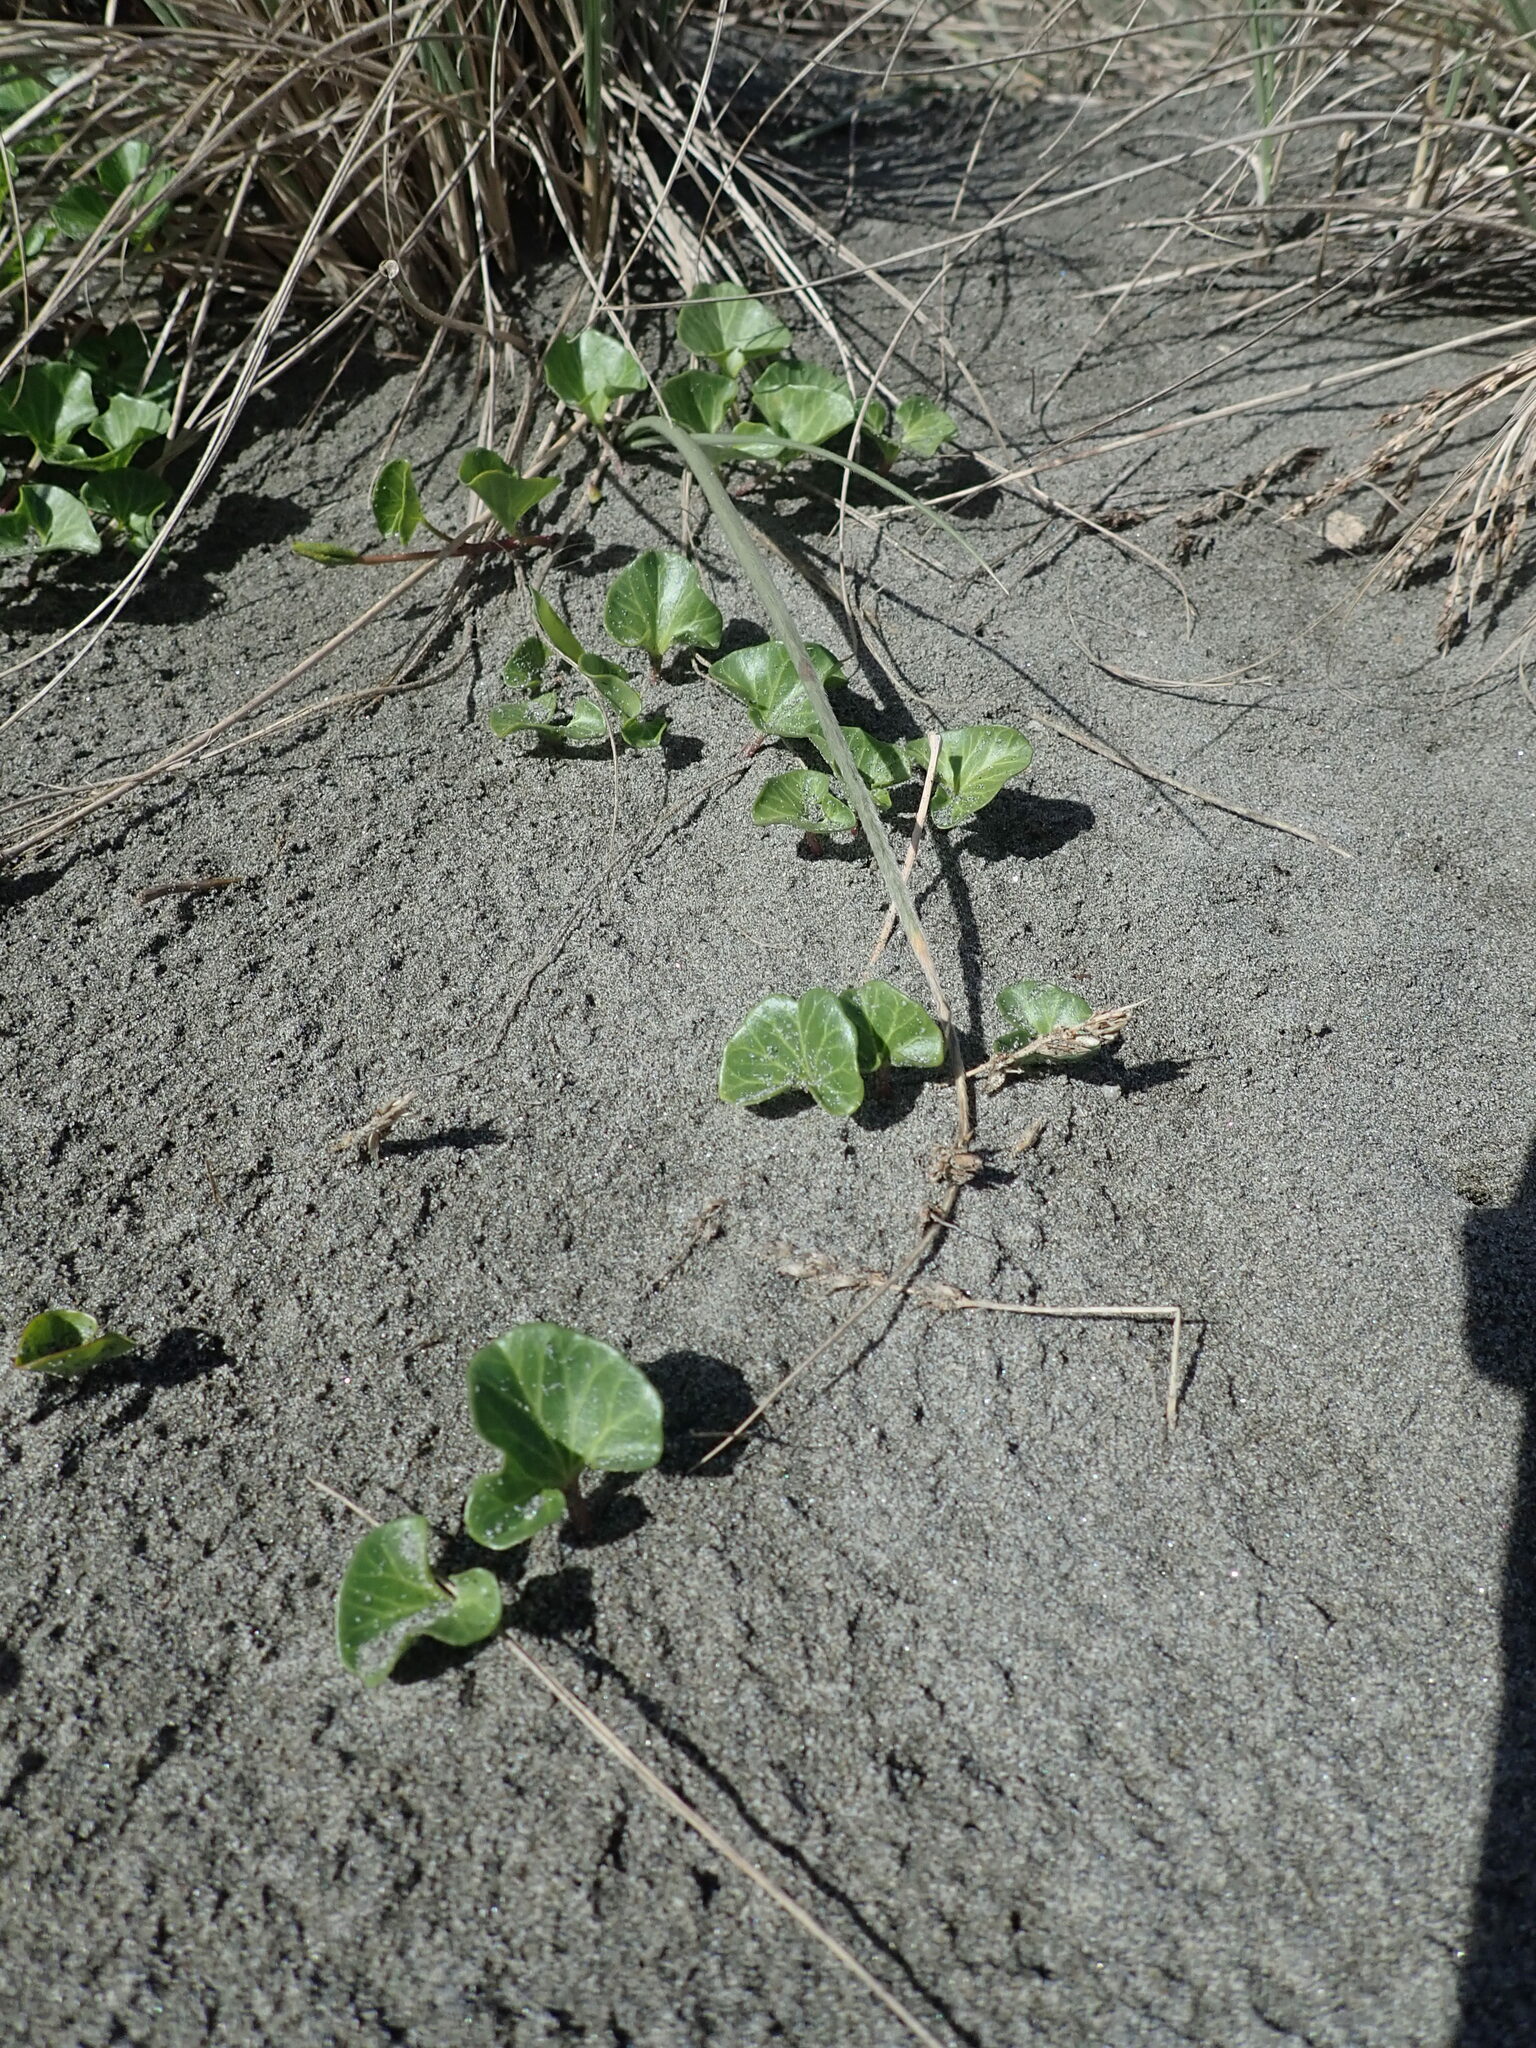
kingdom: Plantae
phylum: Tracheophyta
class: Magnoliopsida
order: Solanales
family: Convolvulaceae
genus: Calystegia
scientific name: Calystegia soldanella
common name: Sea bindweed
